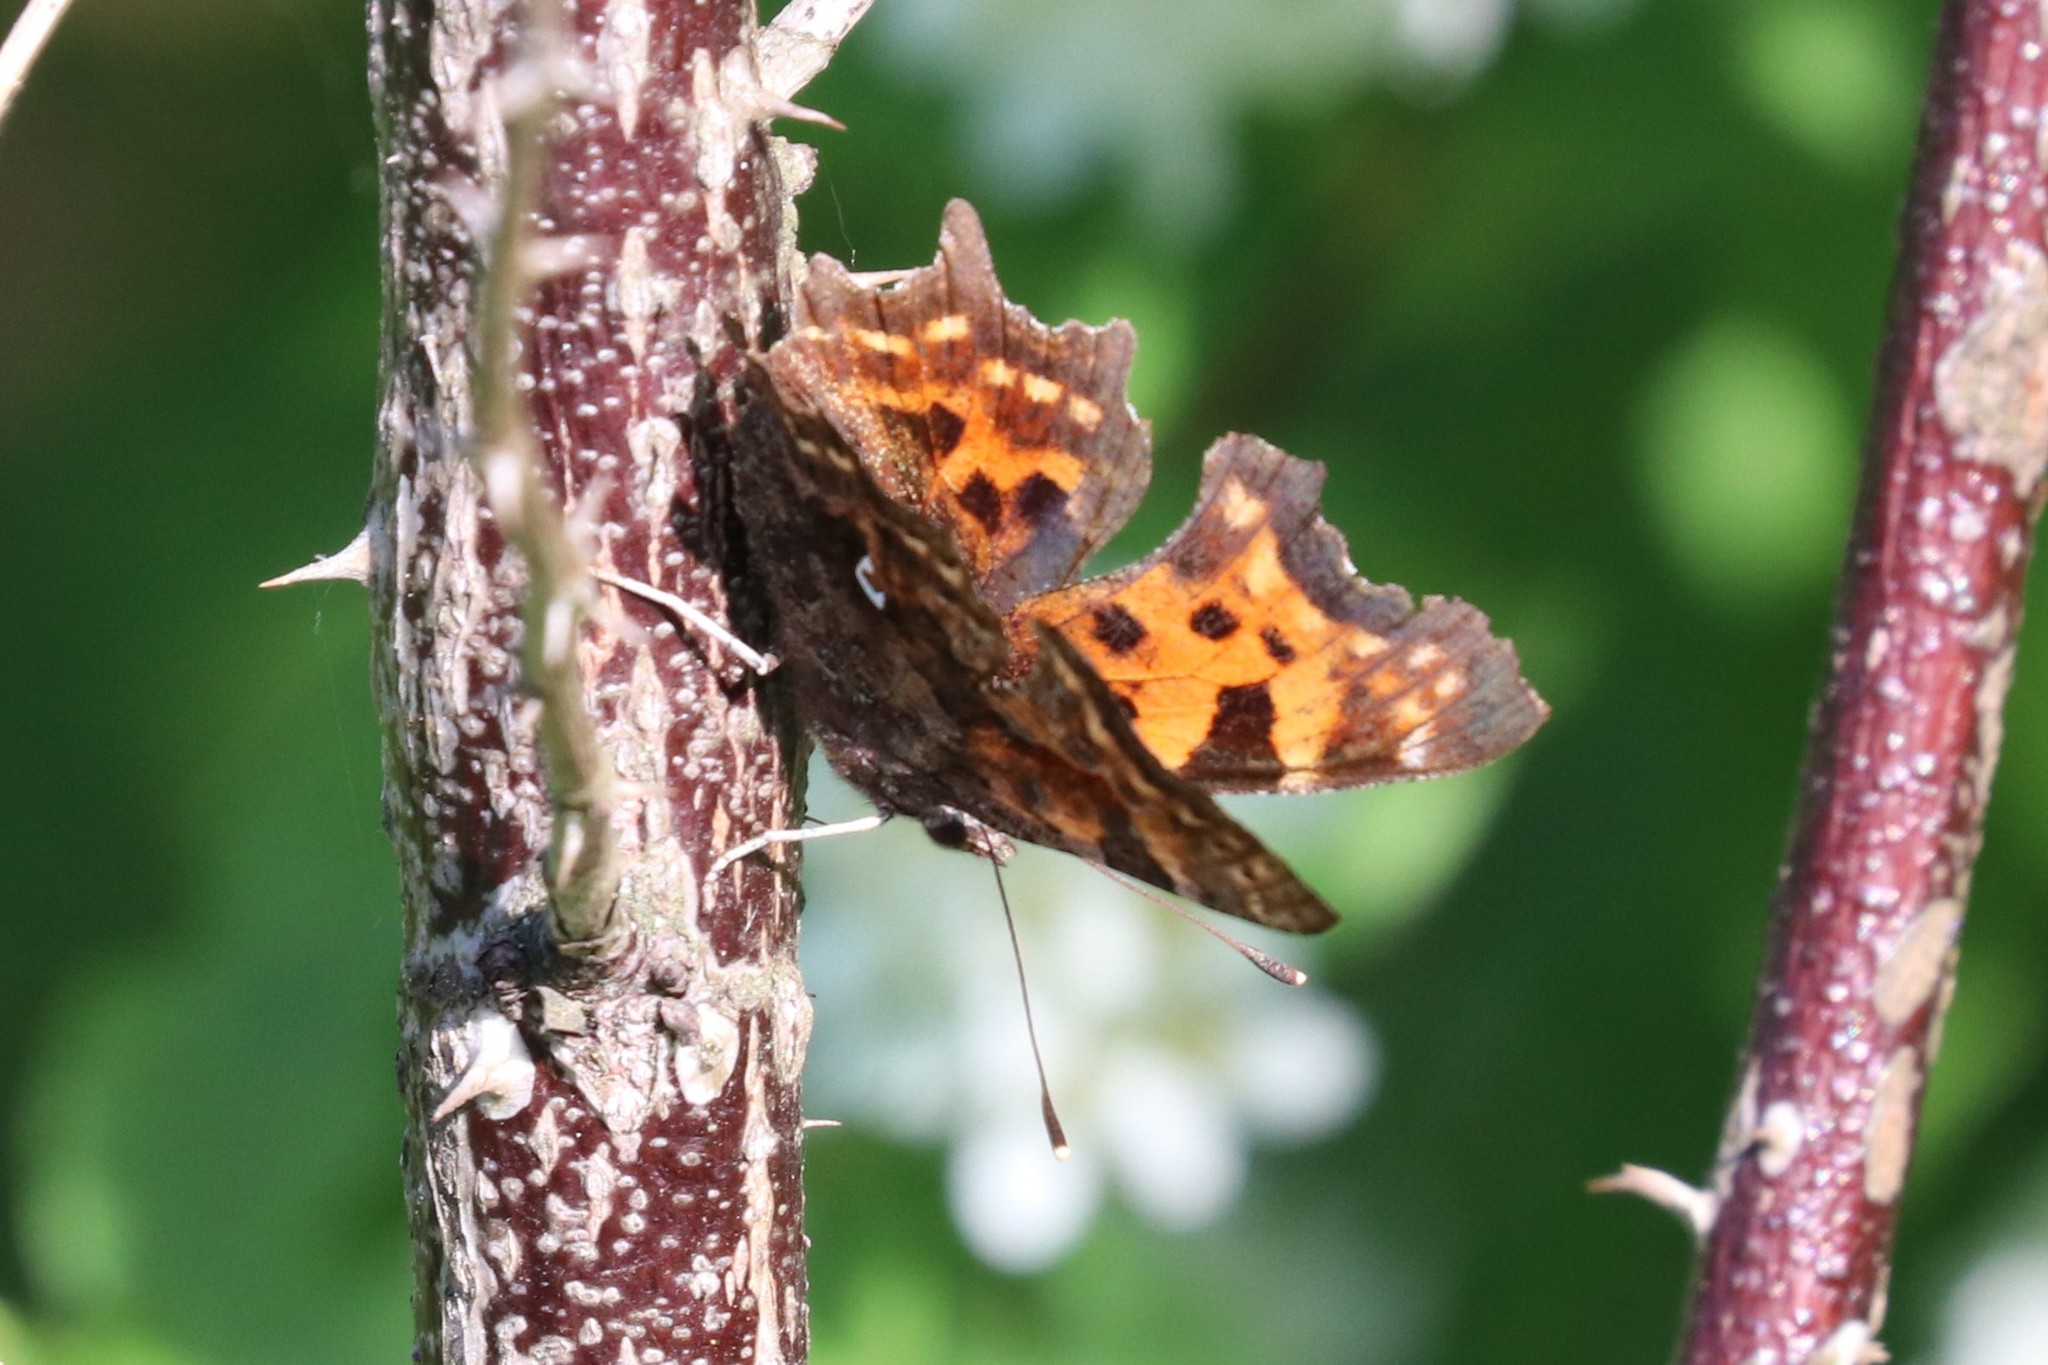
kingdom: Animalia
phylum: Arthropoda
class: Insecta
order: Lepidoptera
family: Nymphalidae
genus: Polygonia
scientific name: Polygonia c-album
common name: Comma
